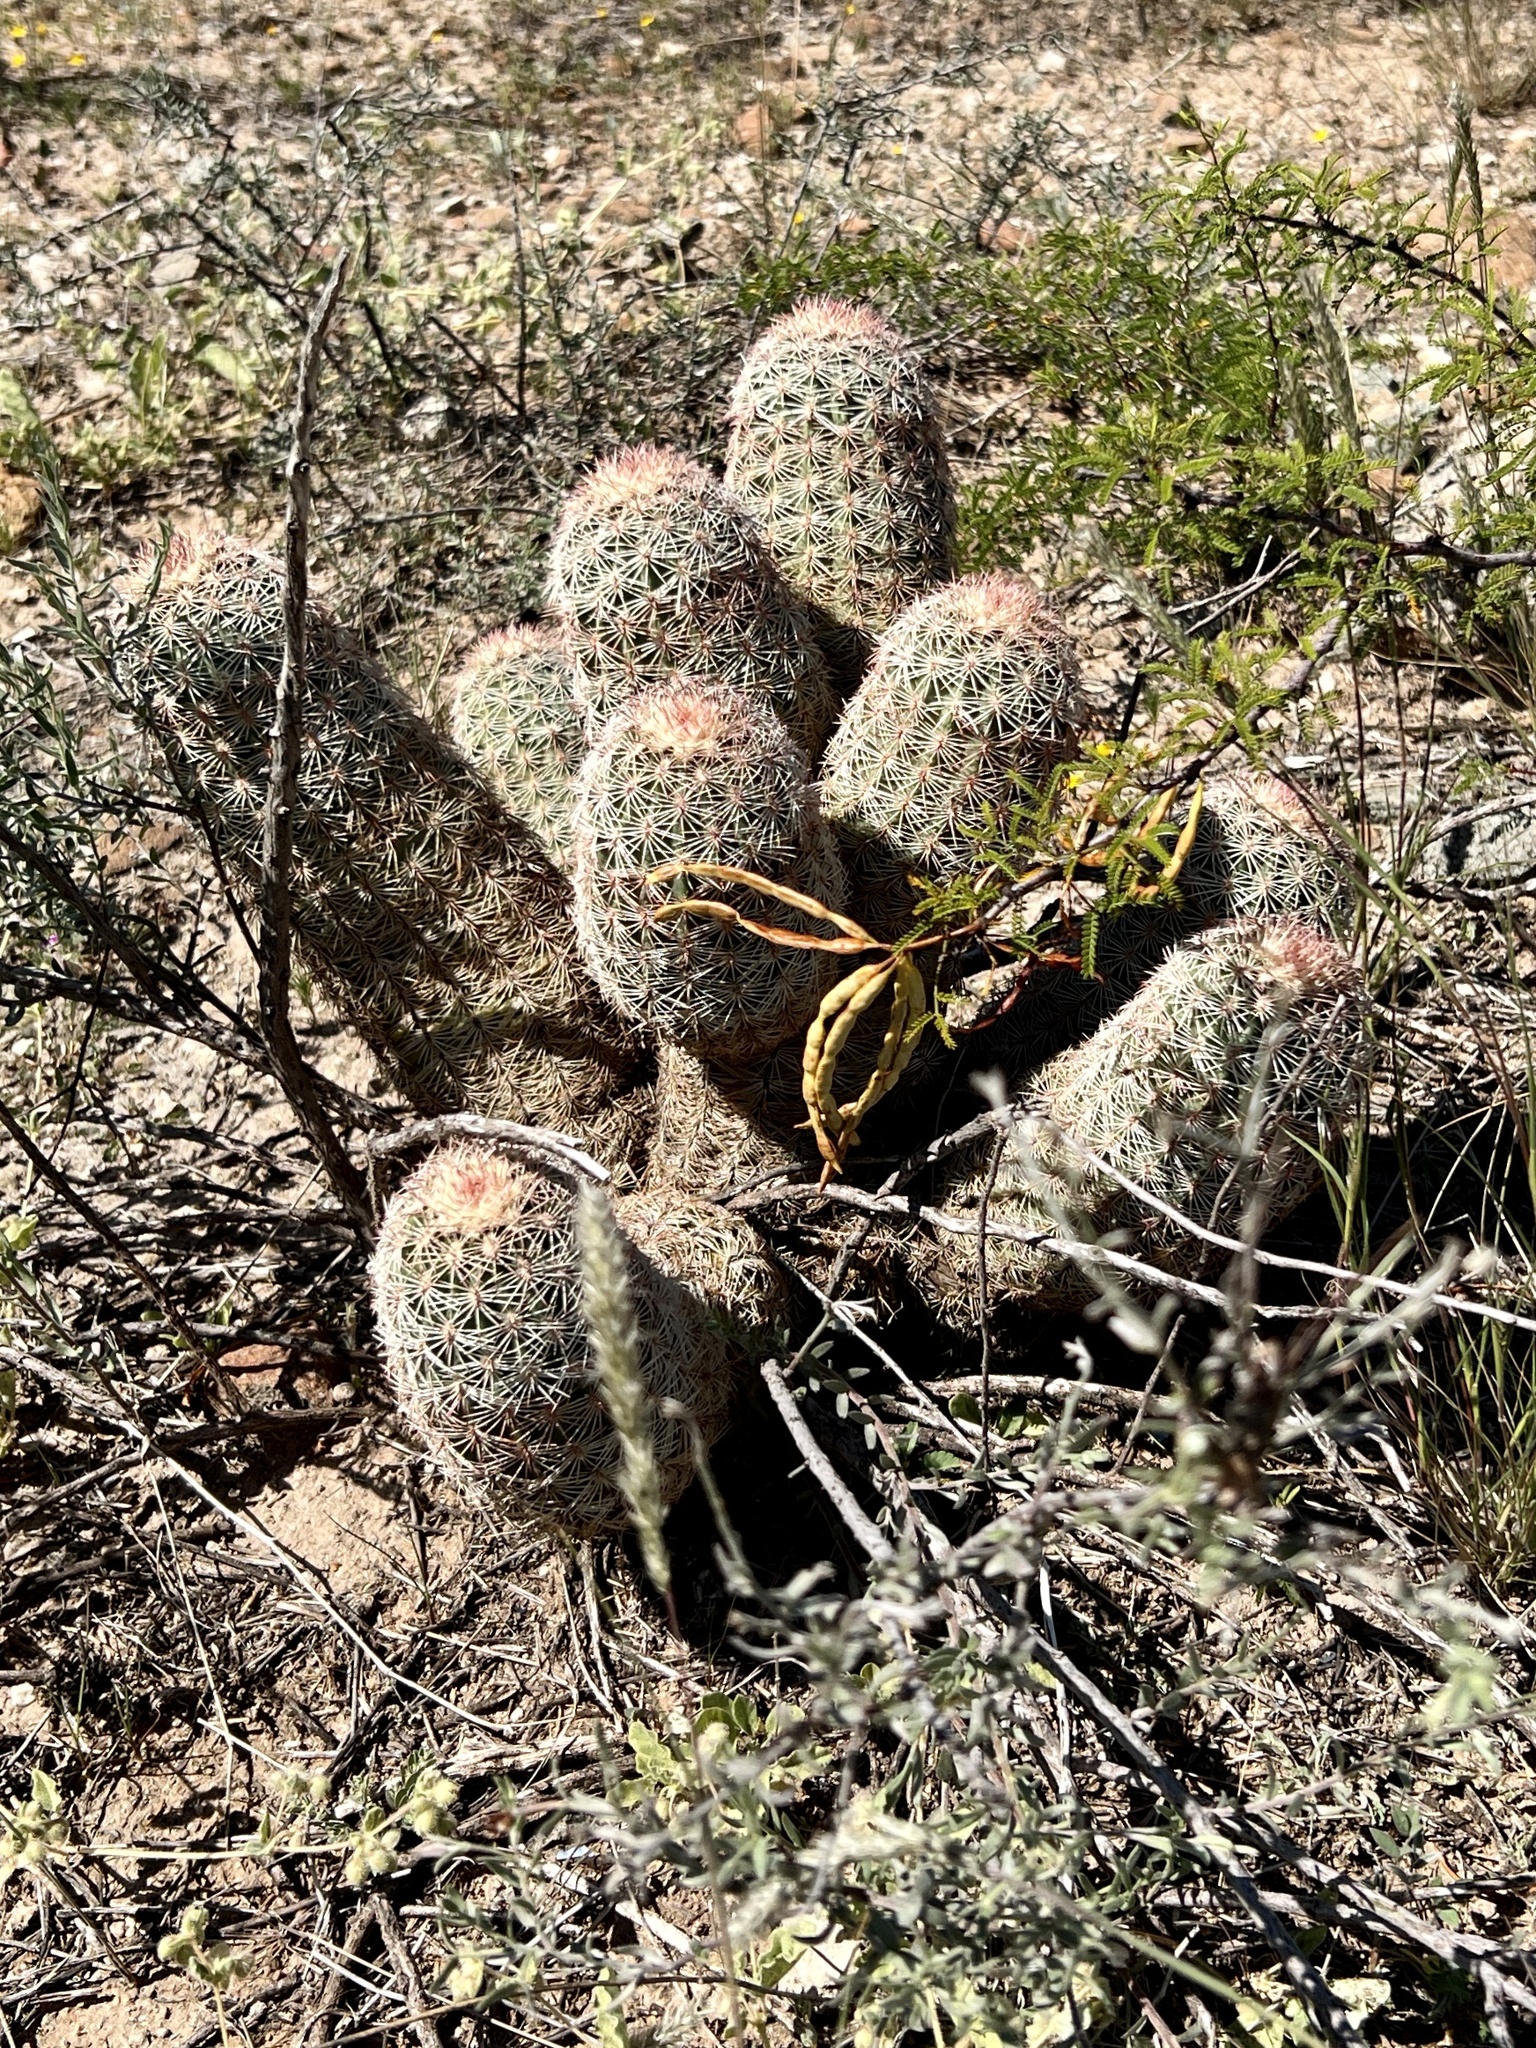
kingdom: Plantae
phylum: Tracheophyta
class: Magnoliopsida
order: Caryophyllales
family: Cactaceae
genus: Echinocereus
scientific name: Echinocereus dasyacanthus
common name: Spiny hedgehog cactus
